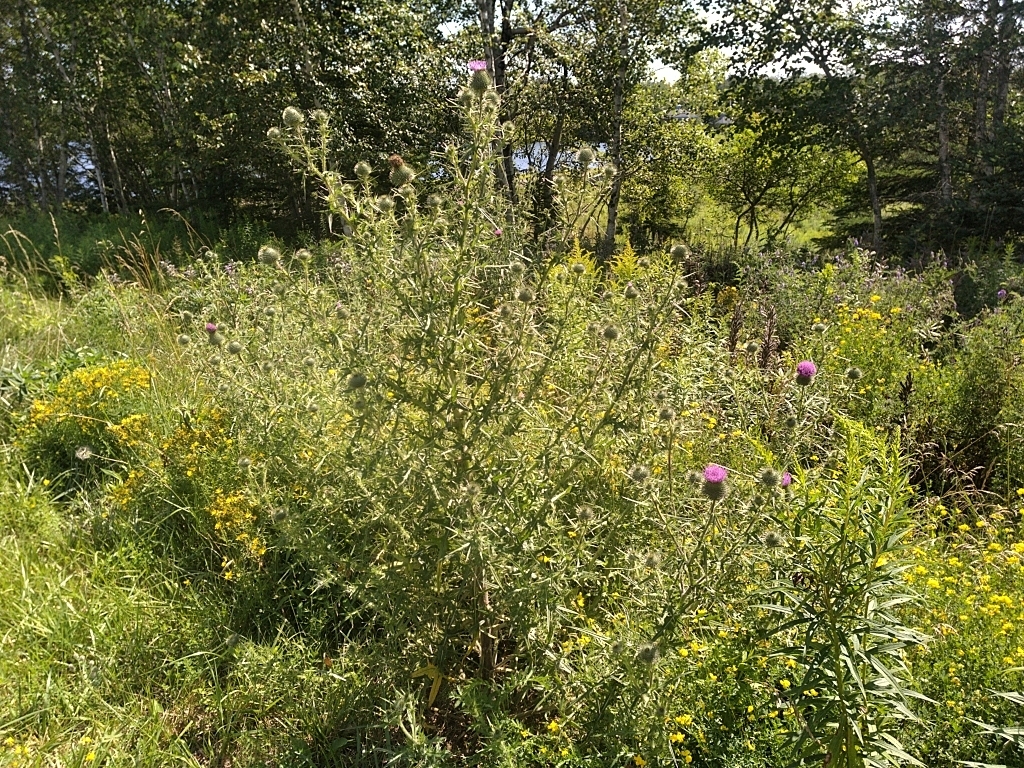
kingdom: Plantae
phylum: Tracheophyta
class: Magnoliopsida
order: Asterales
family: Asteraceae
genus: Cirsium
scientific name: Cirsium vulgare
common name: Bull thistle
